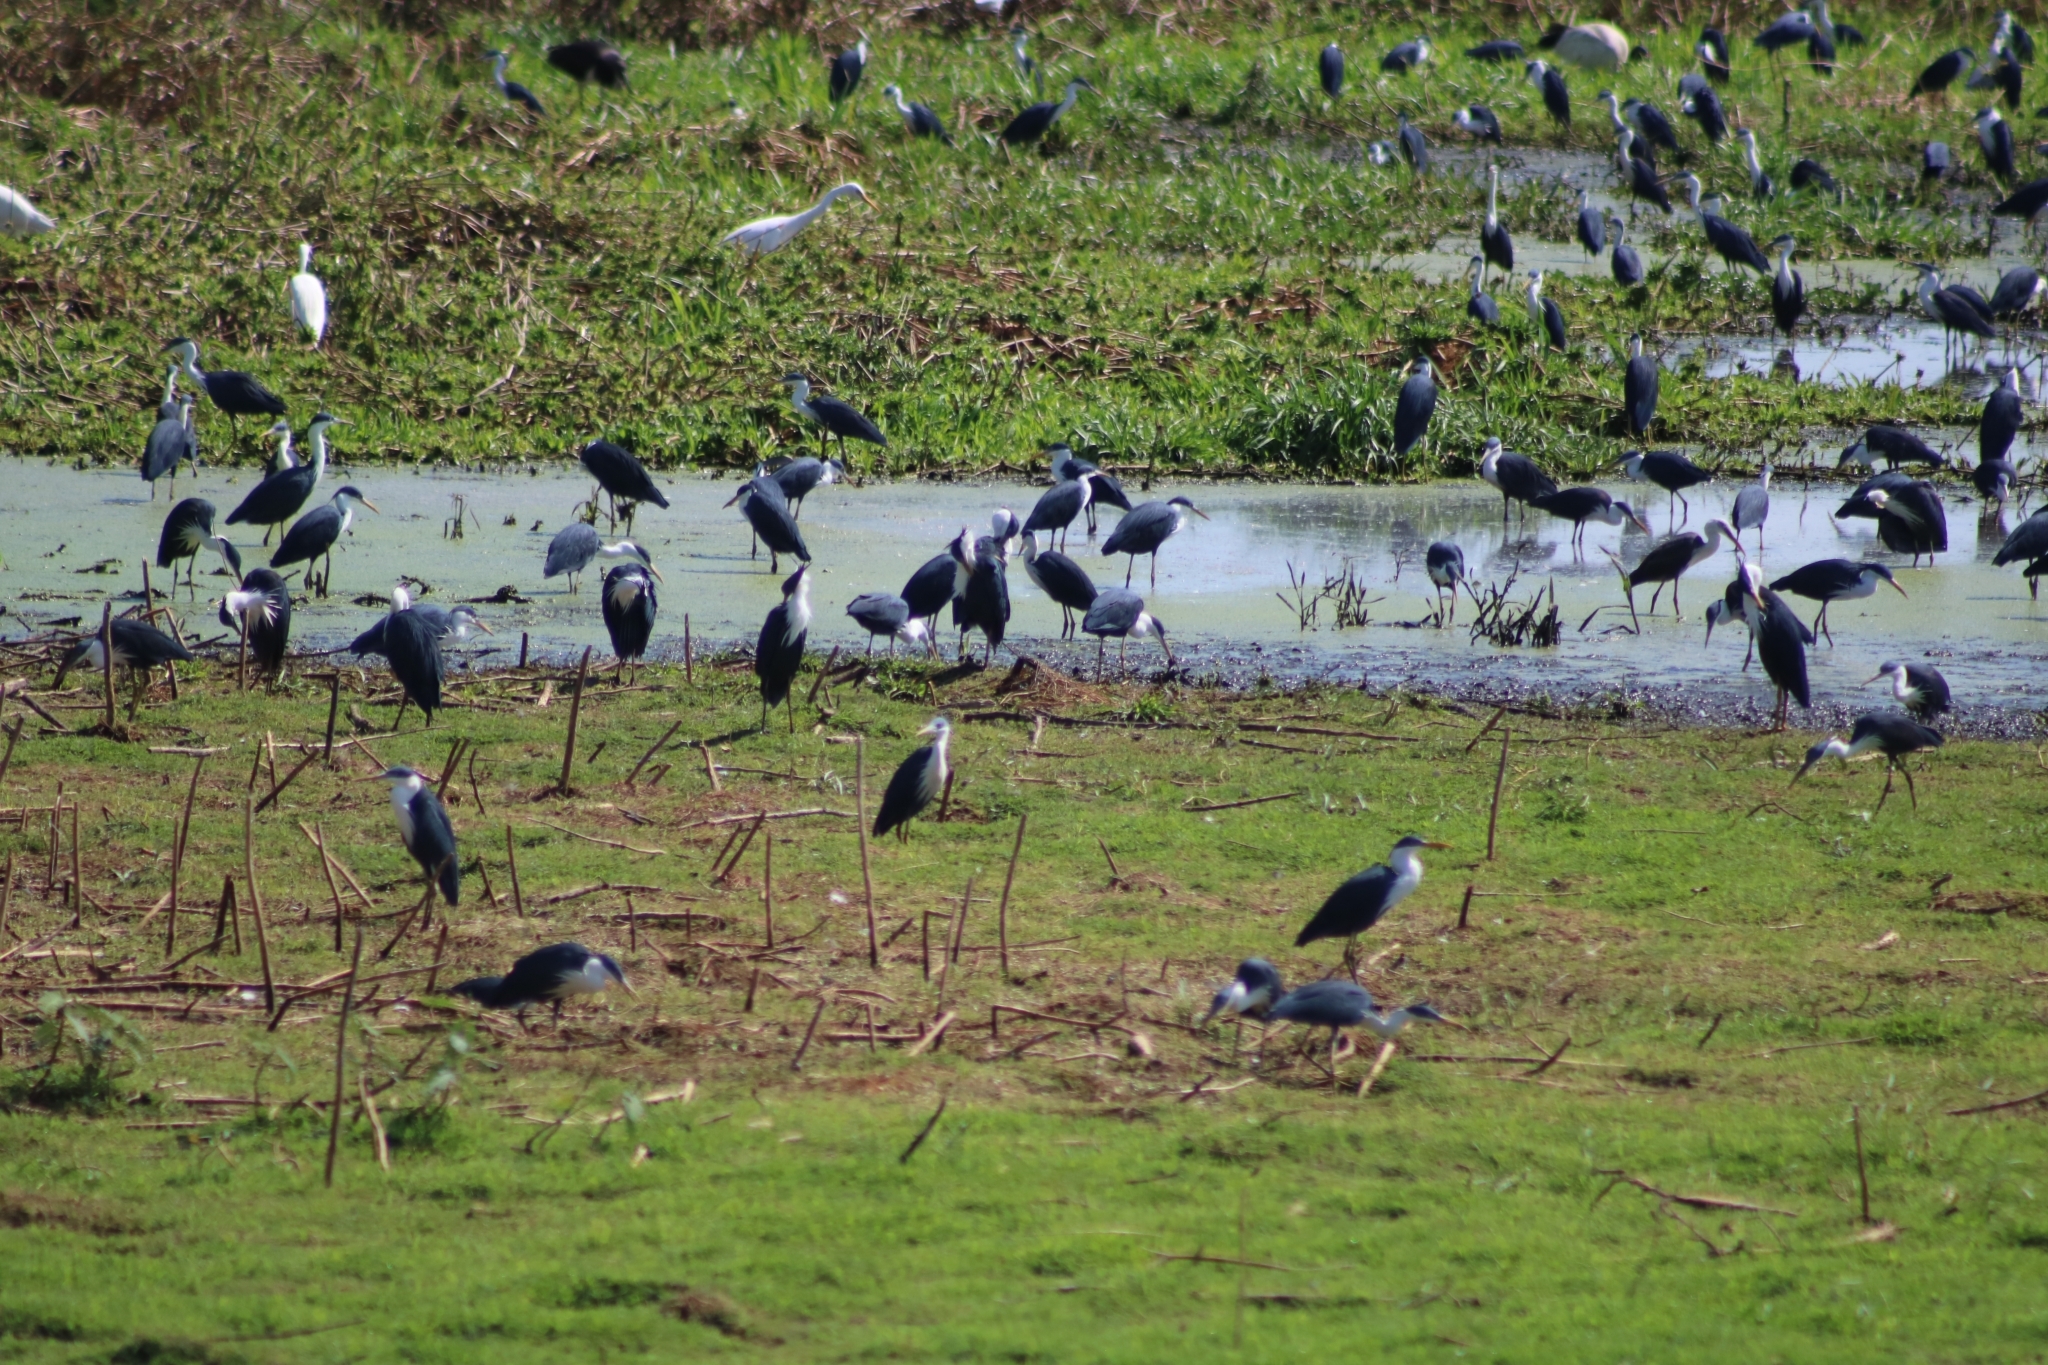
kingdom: Animalia
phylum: Chordata
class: Aves
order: Pelecaniformes
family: Ardeidae
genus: Egretta
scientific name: Egretta picata
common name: Pied heron
